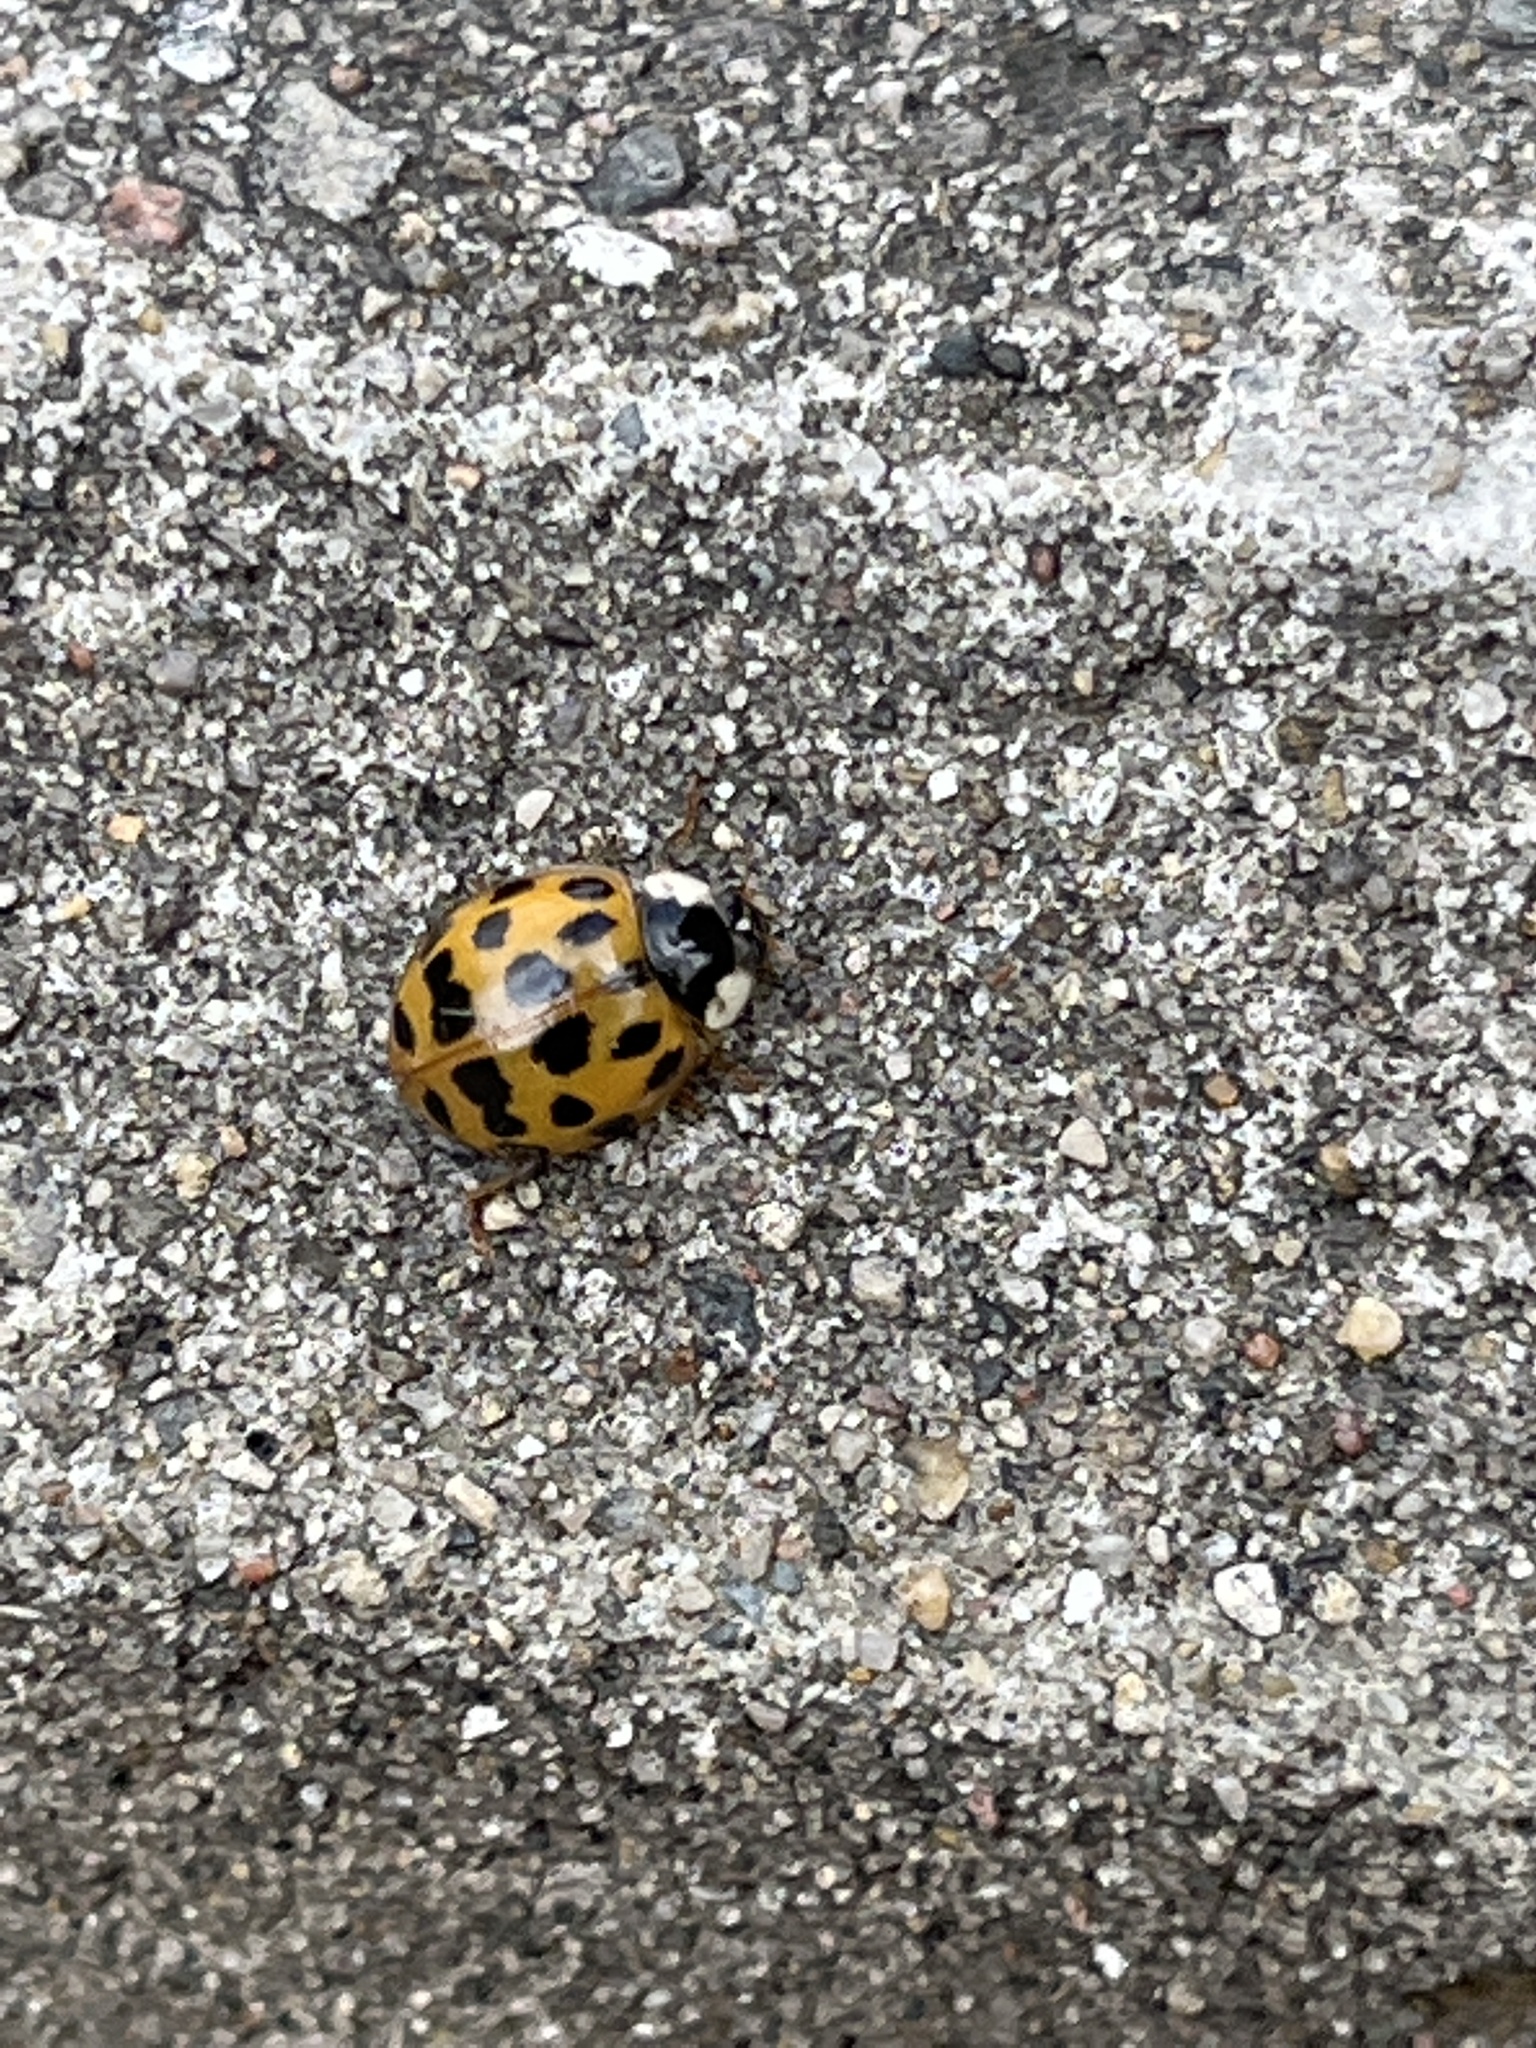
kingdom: Animalia
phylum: Arthropoda
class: Insecta
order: Coleoptera
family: Coccinellidae
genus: Harmonia
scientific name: Harmonia axyridis
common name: Harlequin ladybird
